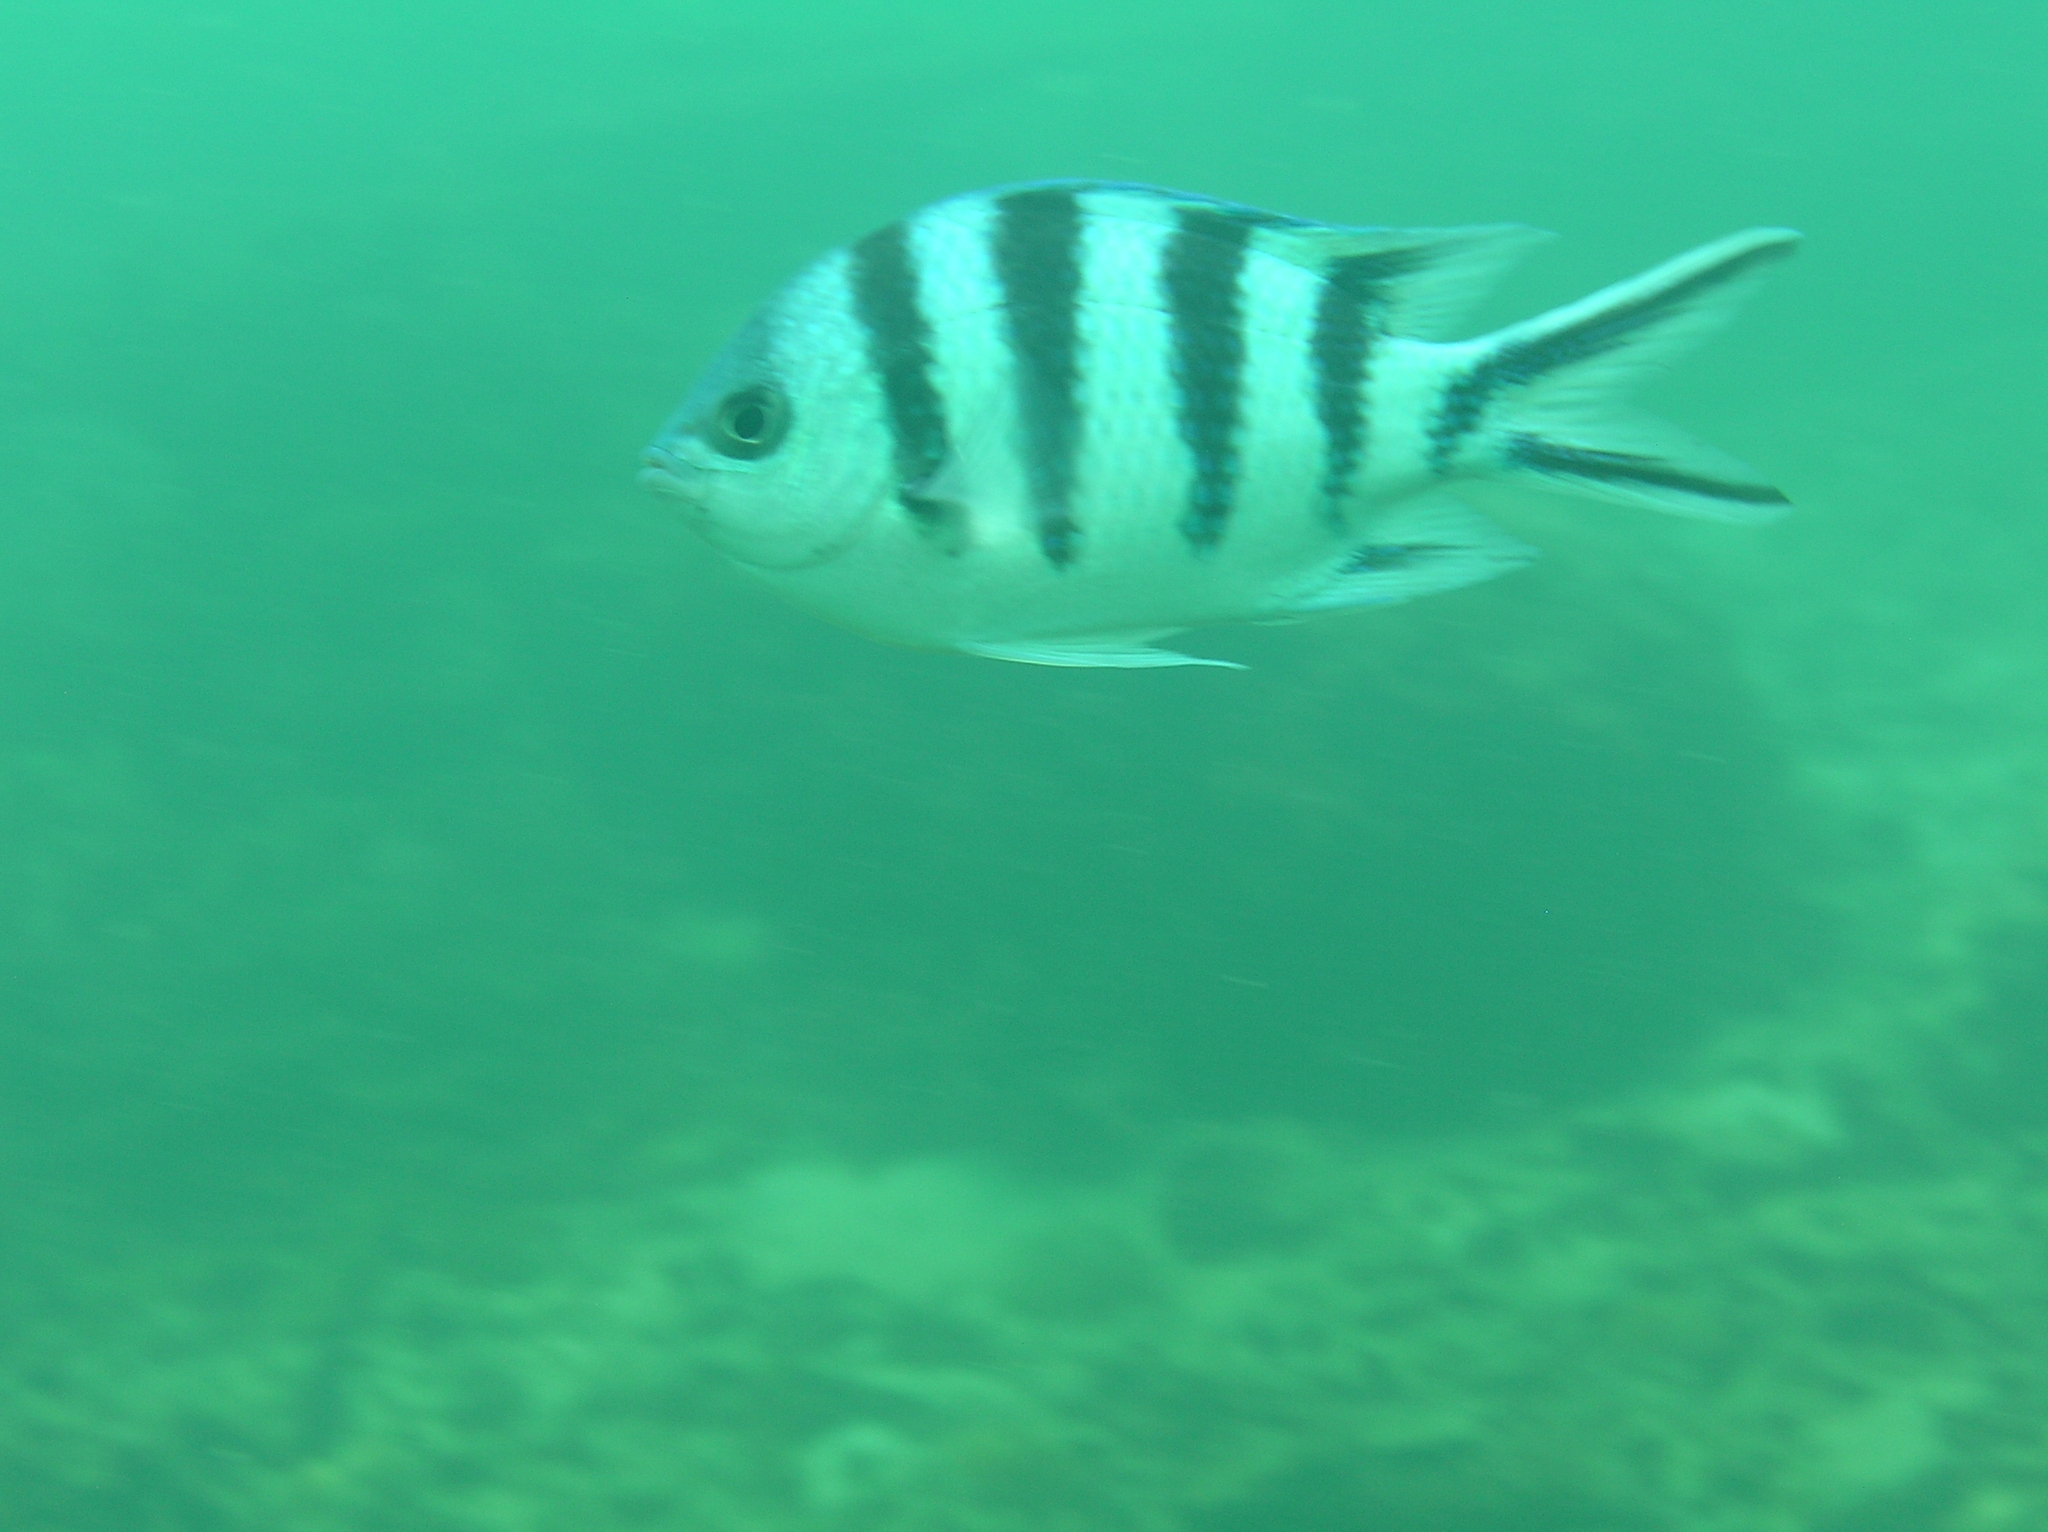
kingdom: Animalia
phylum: Chordata
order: Perciformes
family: Pomacentridae
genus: Abudefduf
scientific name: Abudefduf sexfasciatus
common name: Scissortail sergeant
